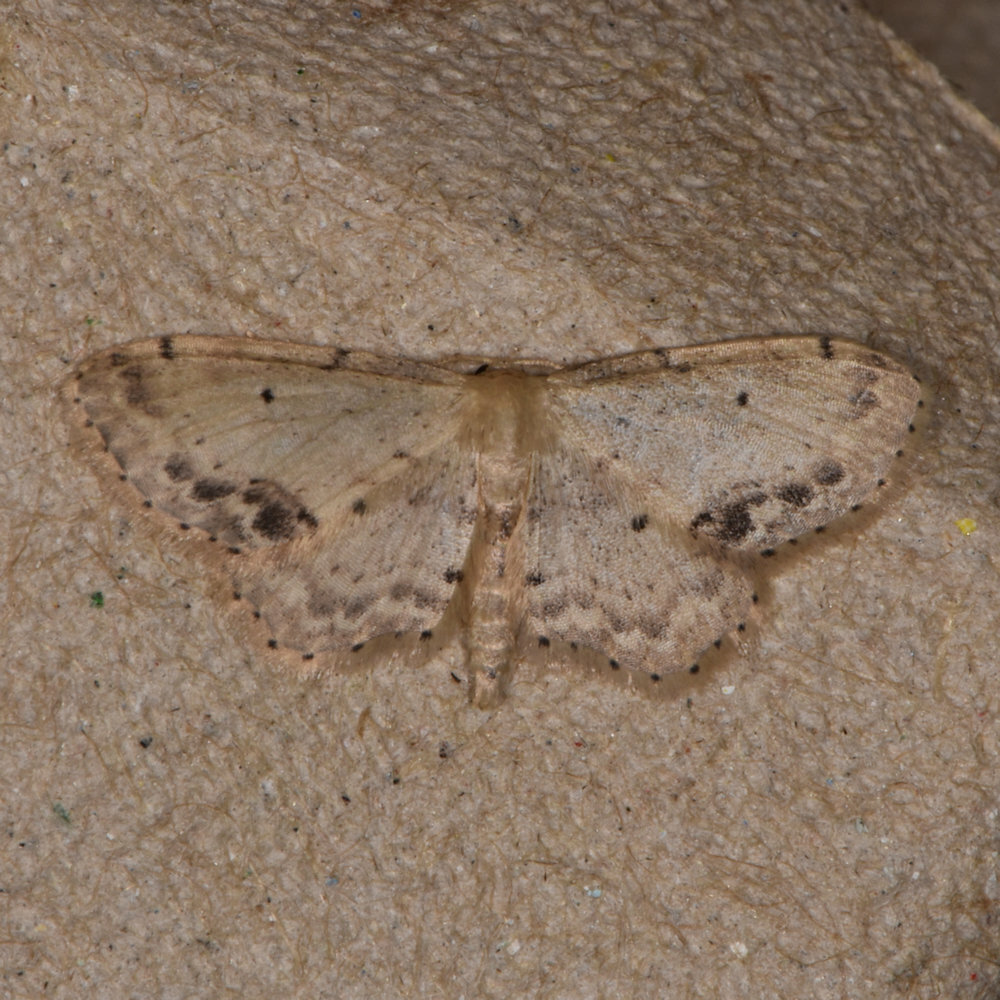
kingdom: Animalia
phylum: Arthropoda
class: Insecta
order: Lepidoptera
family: Geometridae
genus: Idaea
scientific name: Idaea dimidiata
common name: Single-dotted wave
